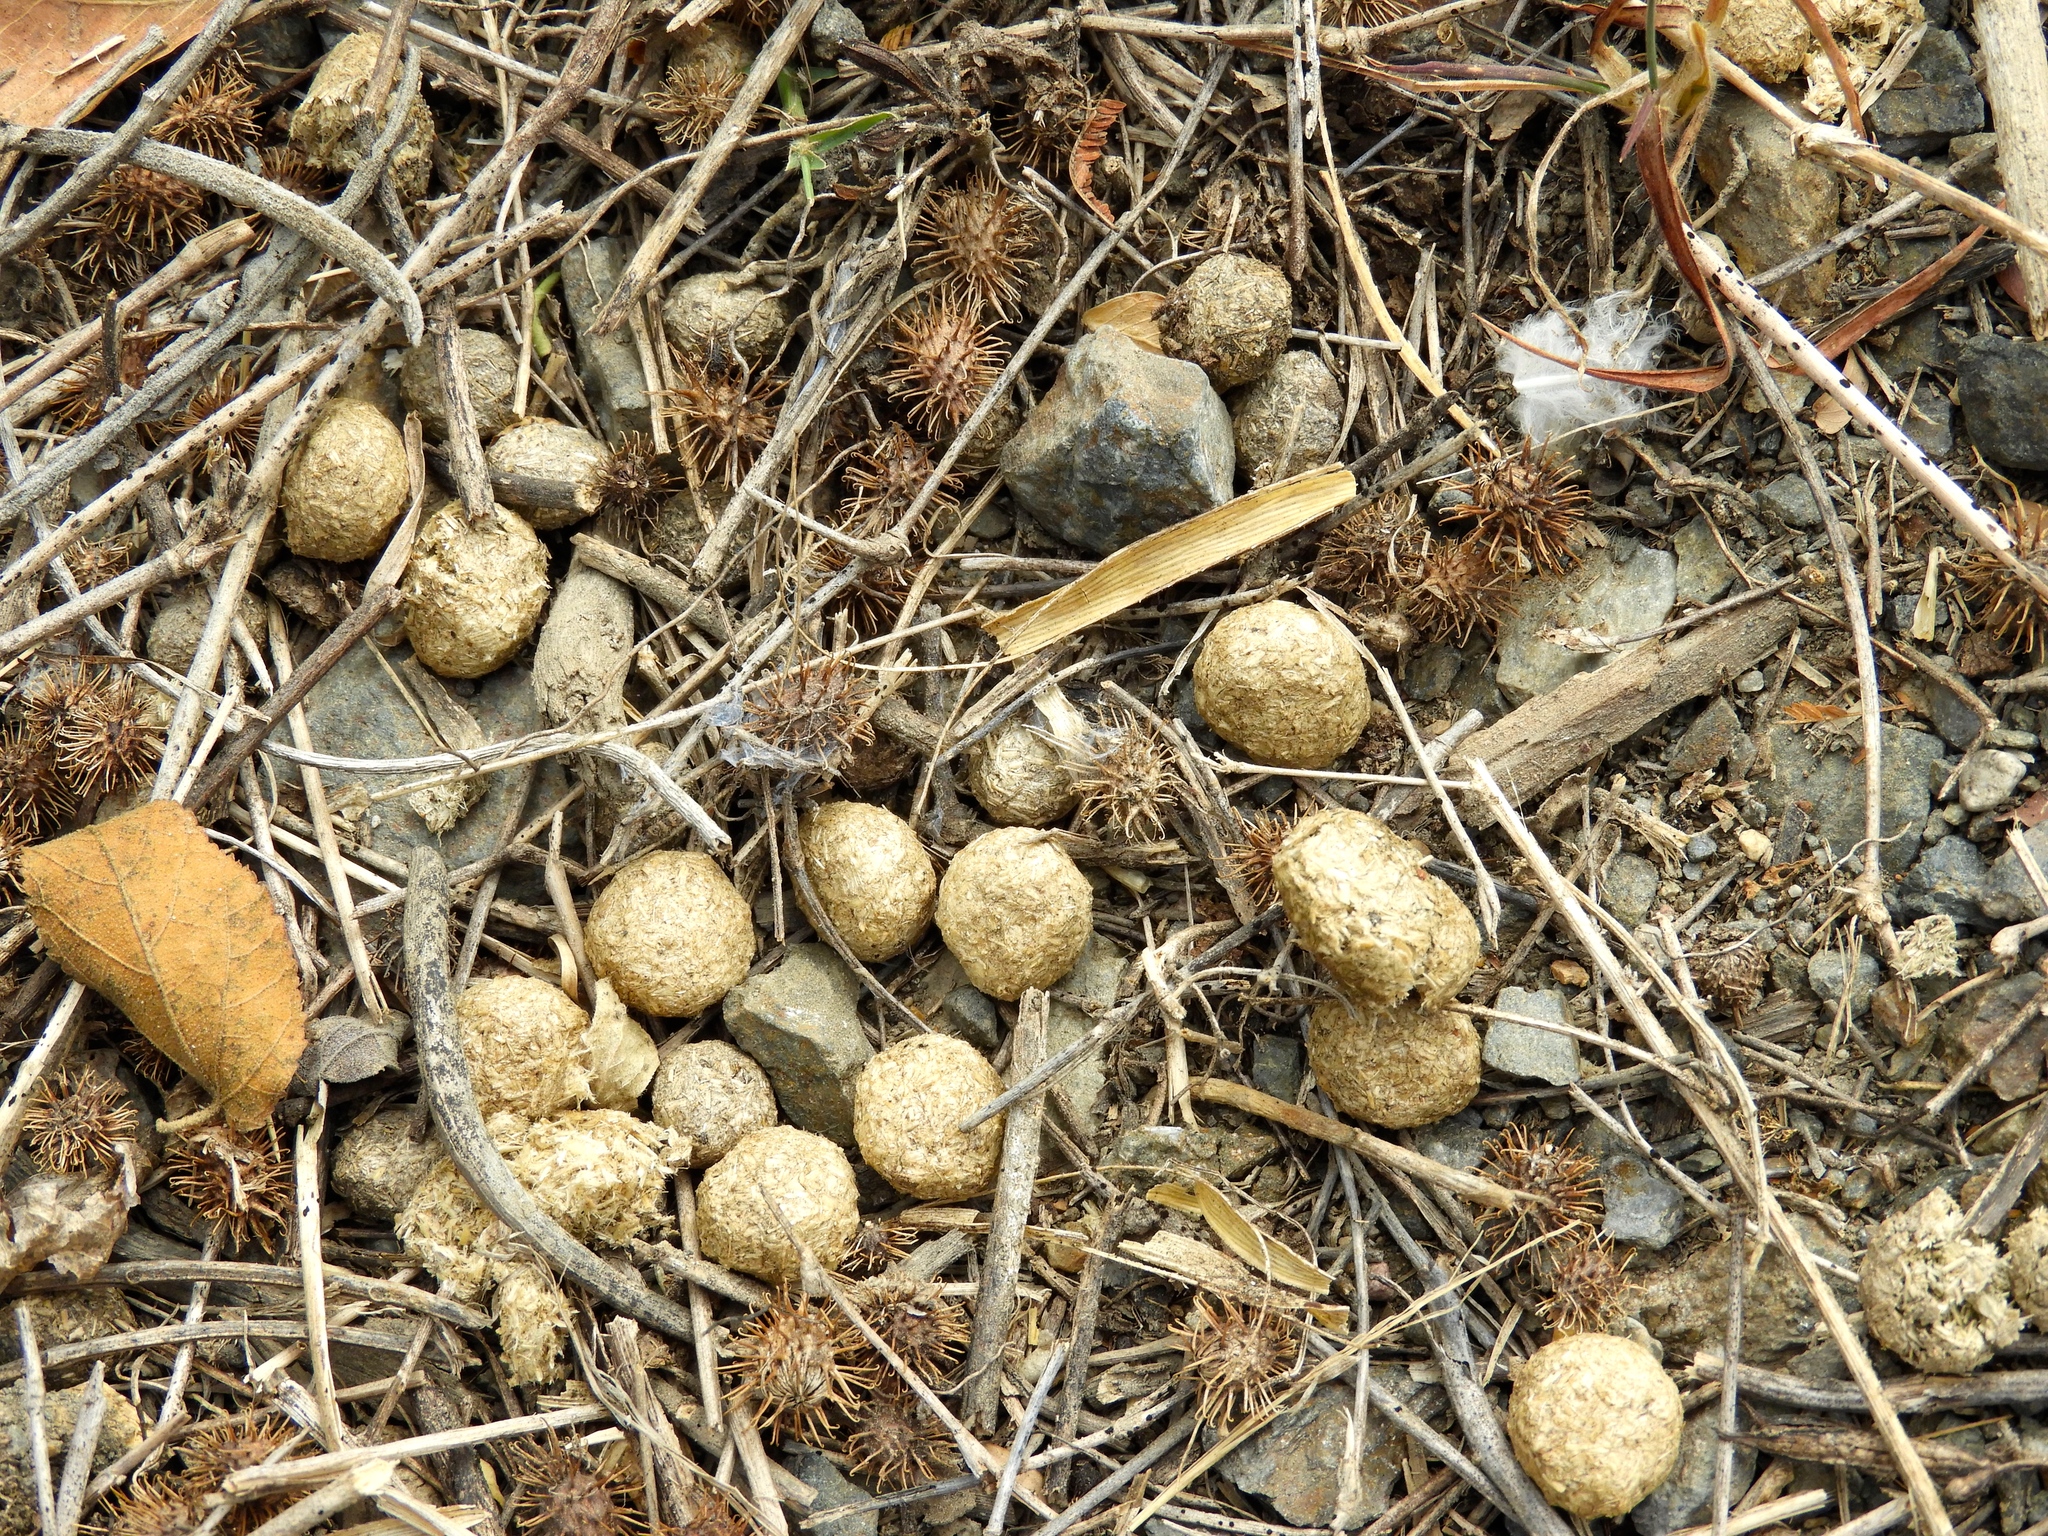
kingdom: Animalia
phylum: Chordata
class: Mammalia
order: Lagomorpha
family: Leporidae
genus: Lepus
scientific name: Lepus alleni
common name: Antelope jackrabbit
